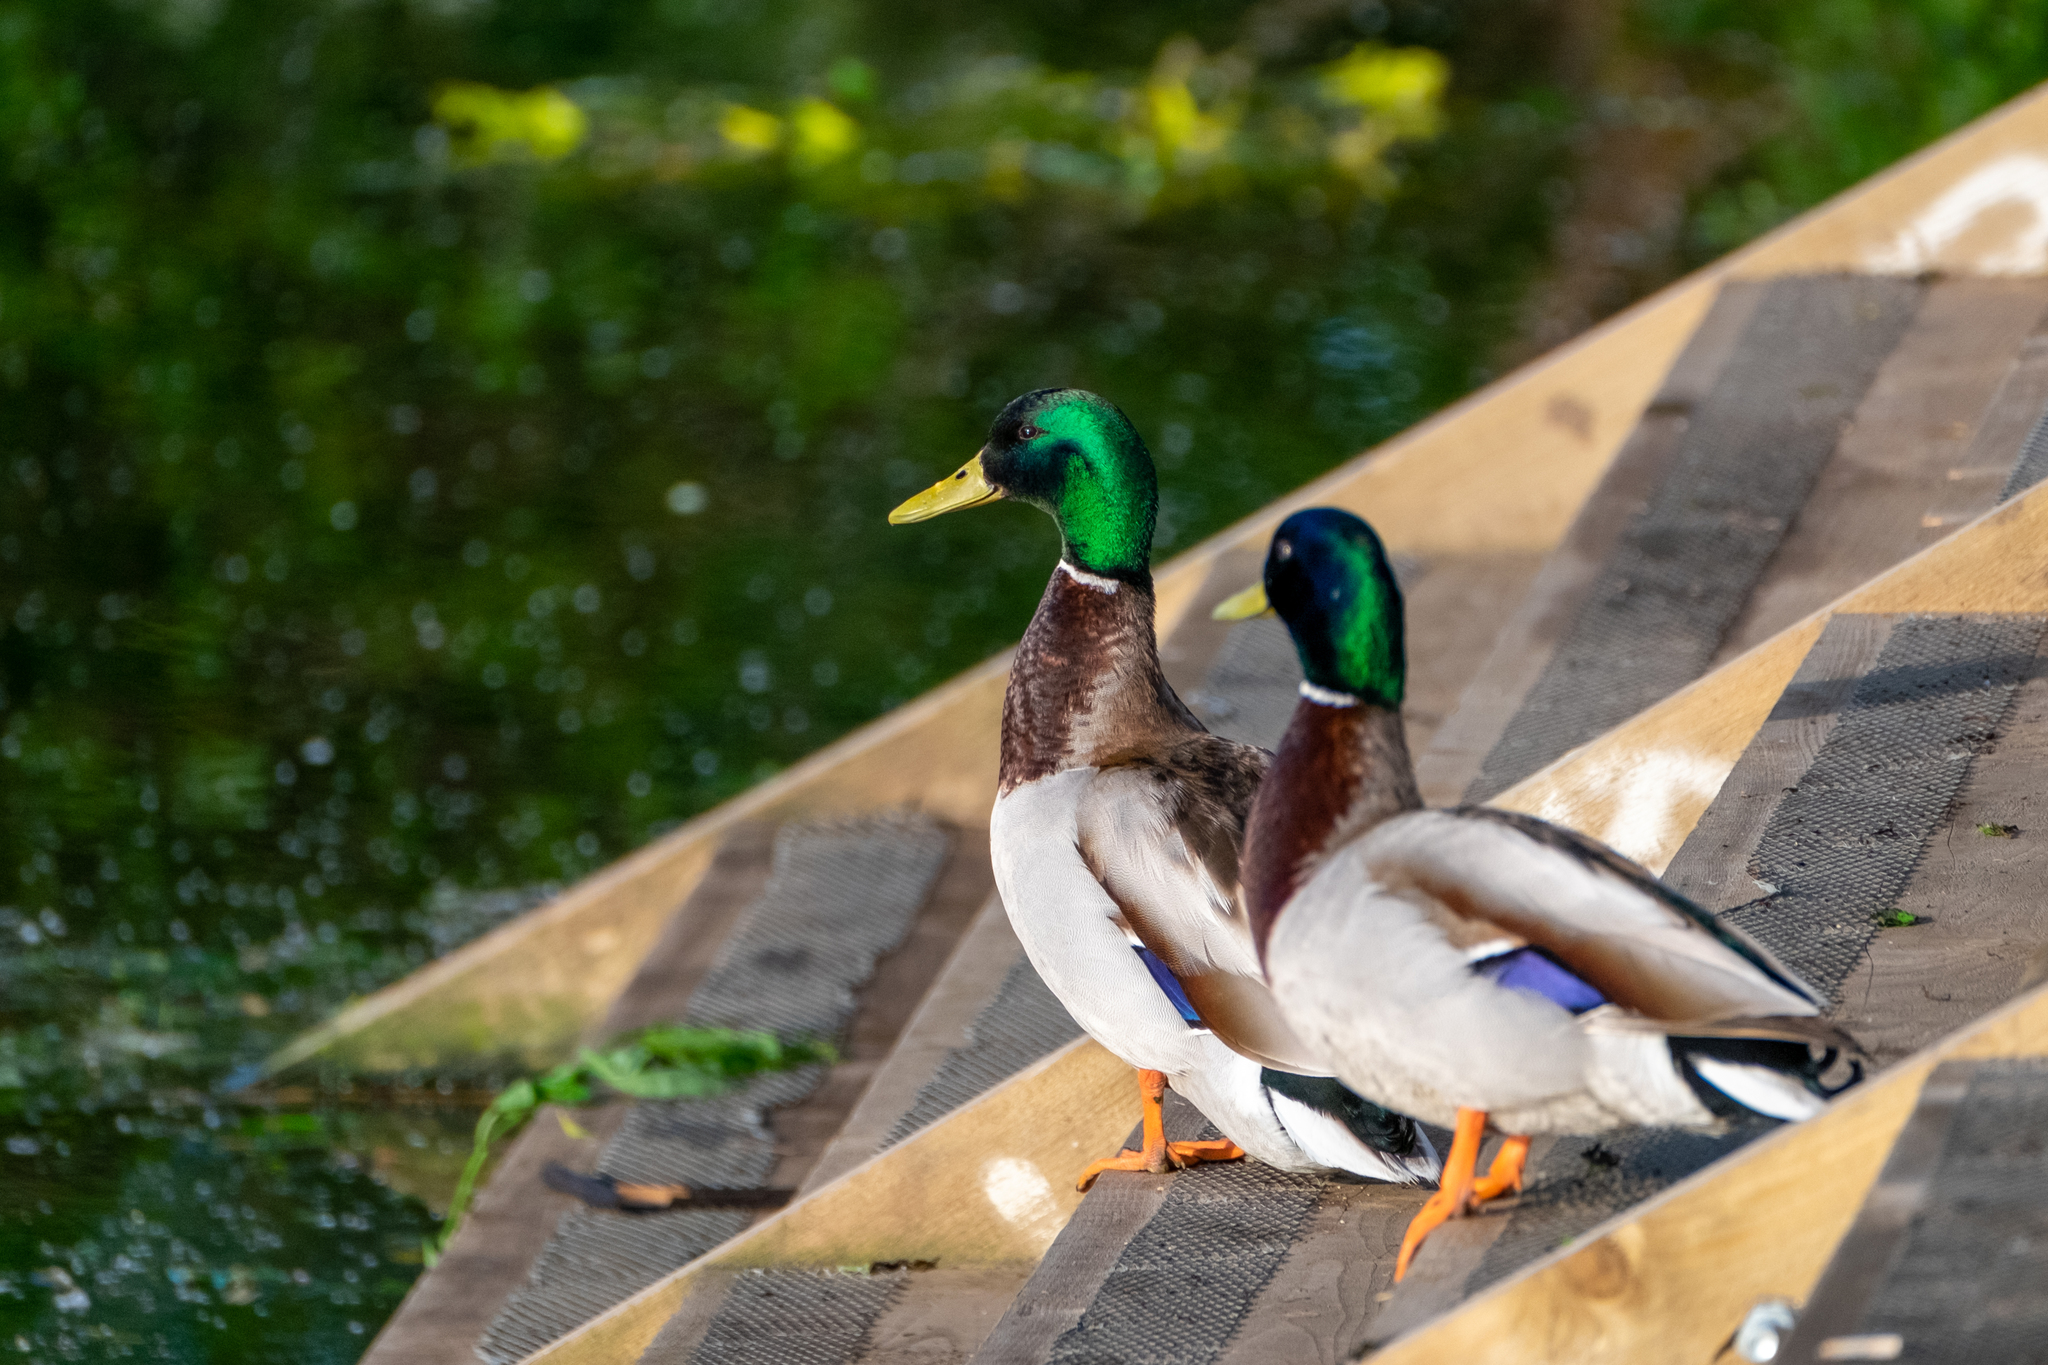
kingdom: Animalia
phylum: Chordata
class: Aves
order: Anseriformes
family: Anatidae
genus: Anas
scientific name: Anas platyrhynchos
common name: Mallard
